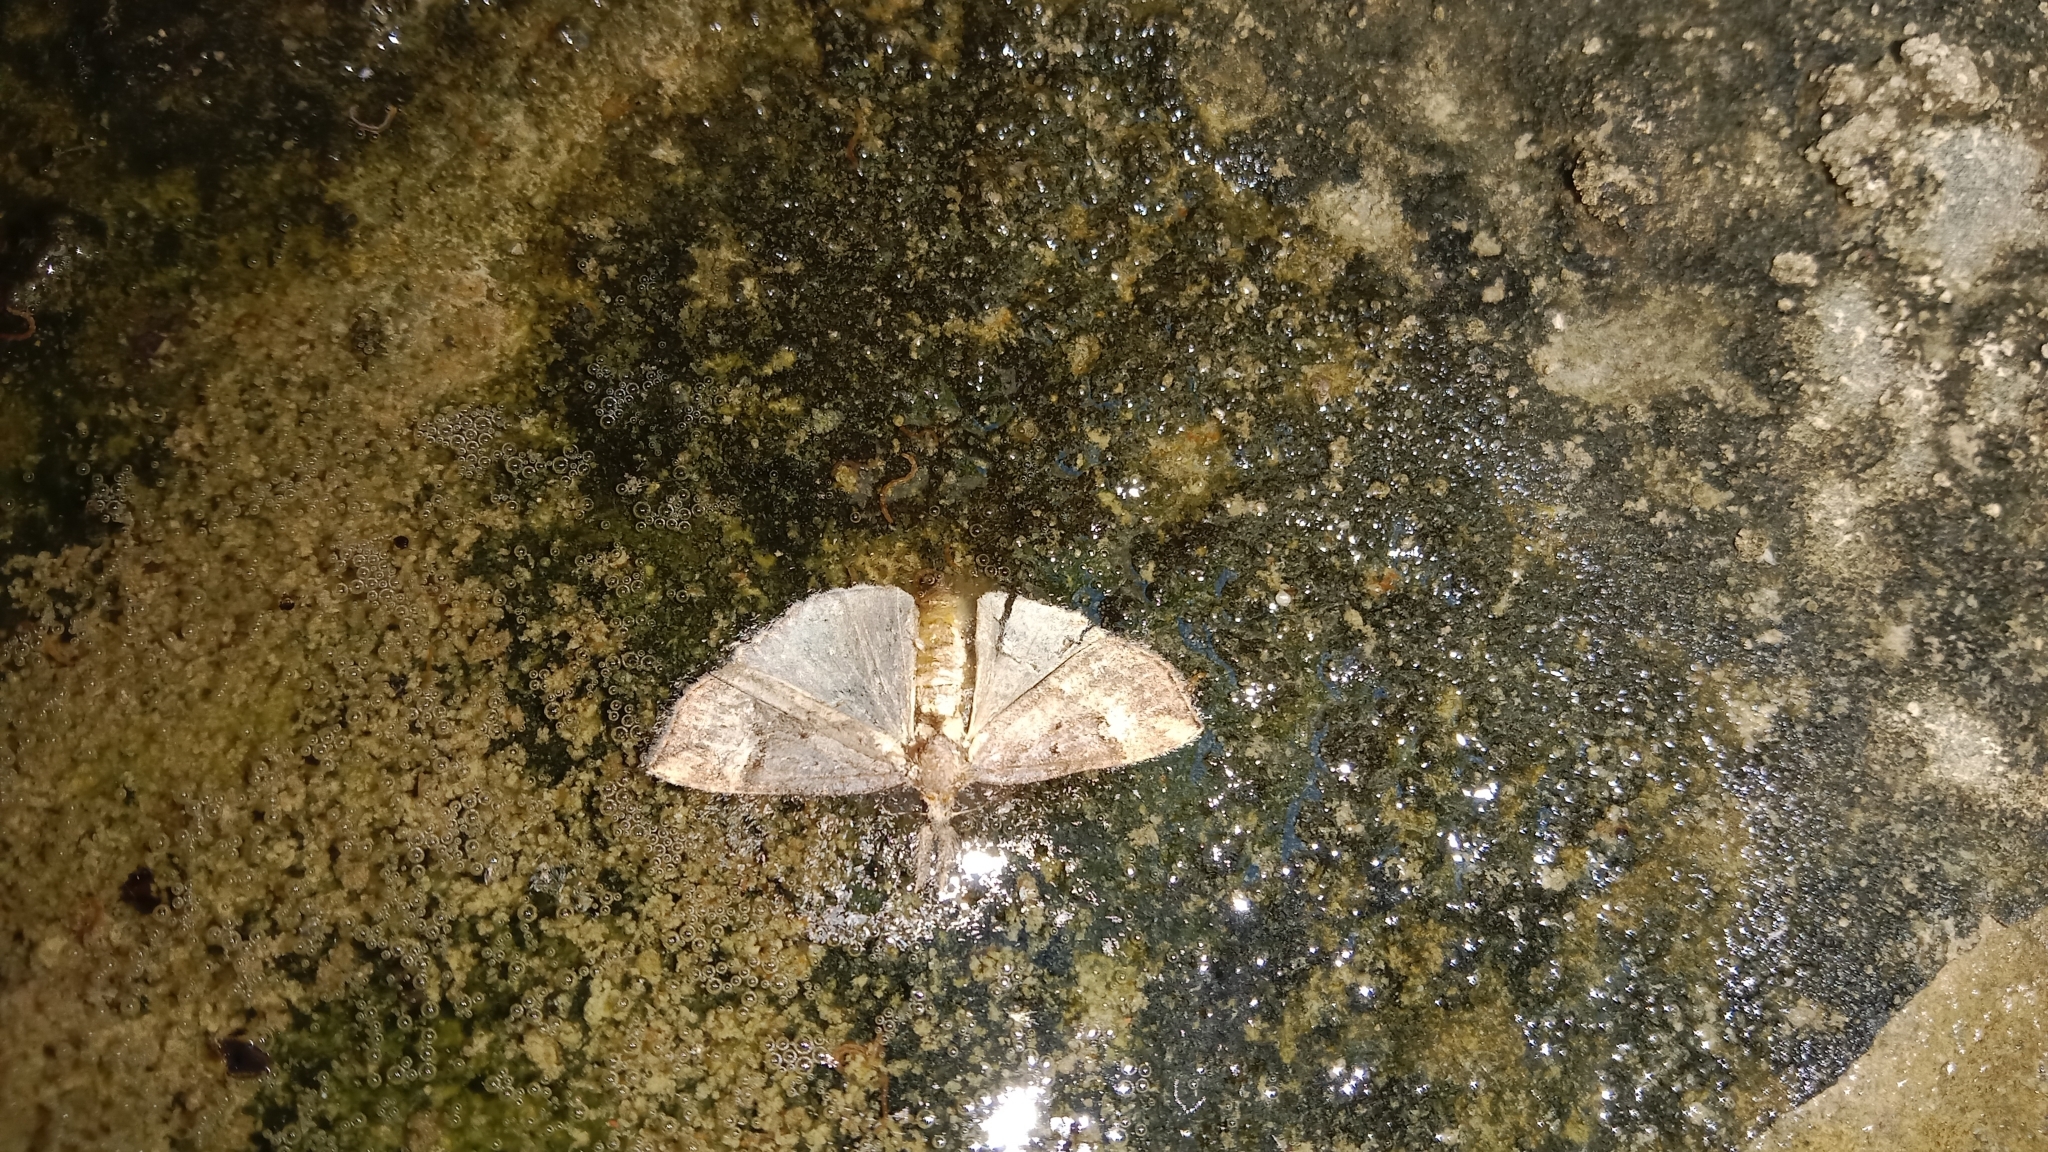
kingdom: Animalia
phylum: Arthropoda
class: Insecta
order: Lepidoptera
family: Erebidae
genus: Hypena
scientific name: Hypena rostralis
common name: Buttoned snout
